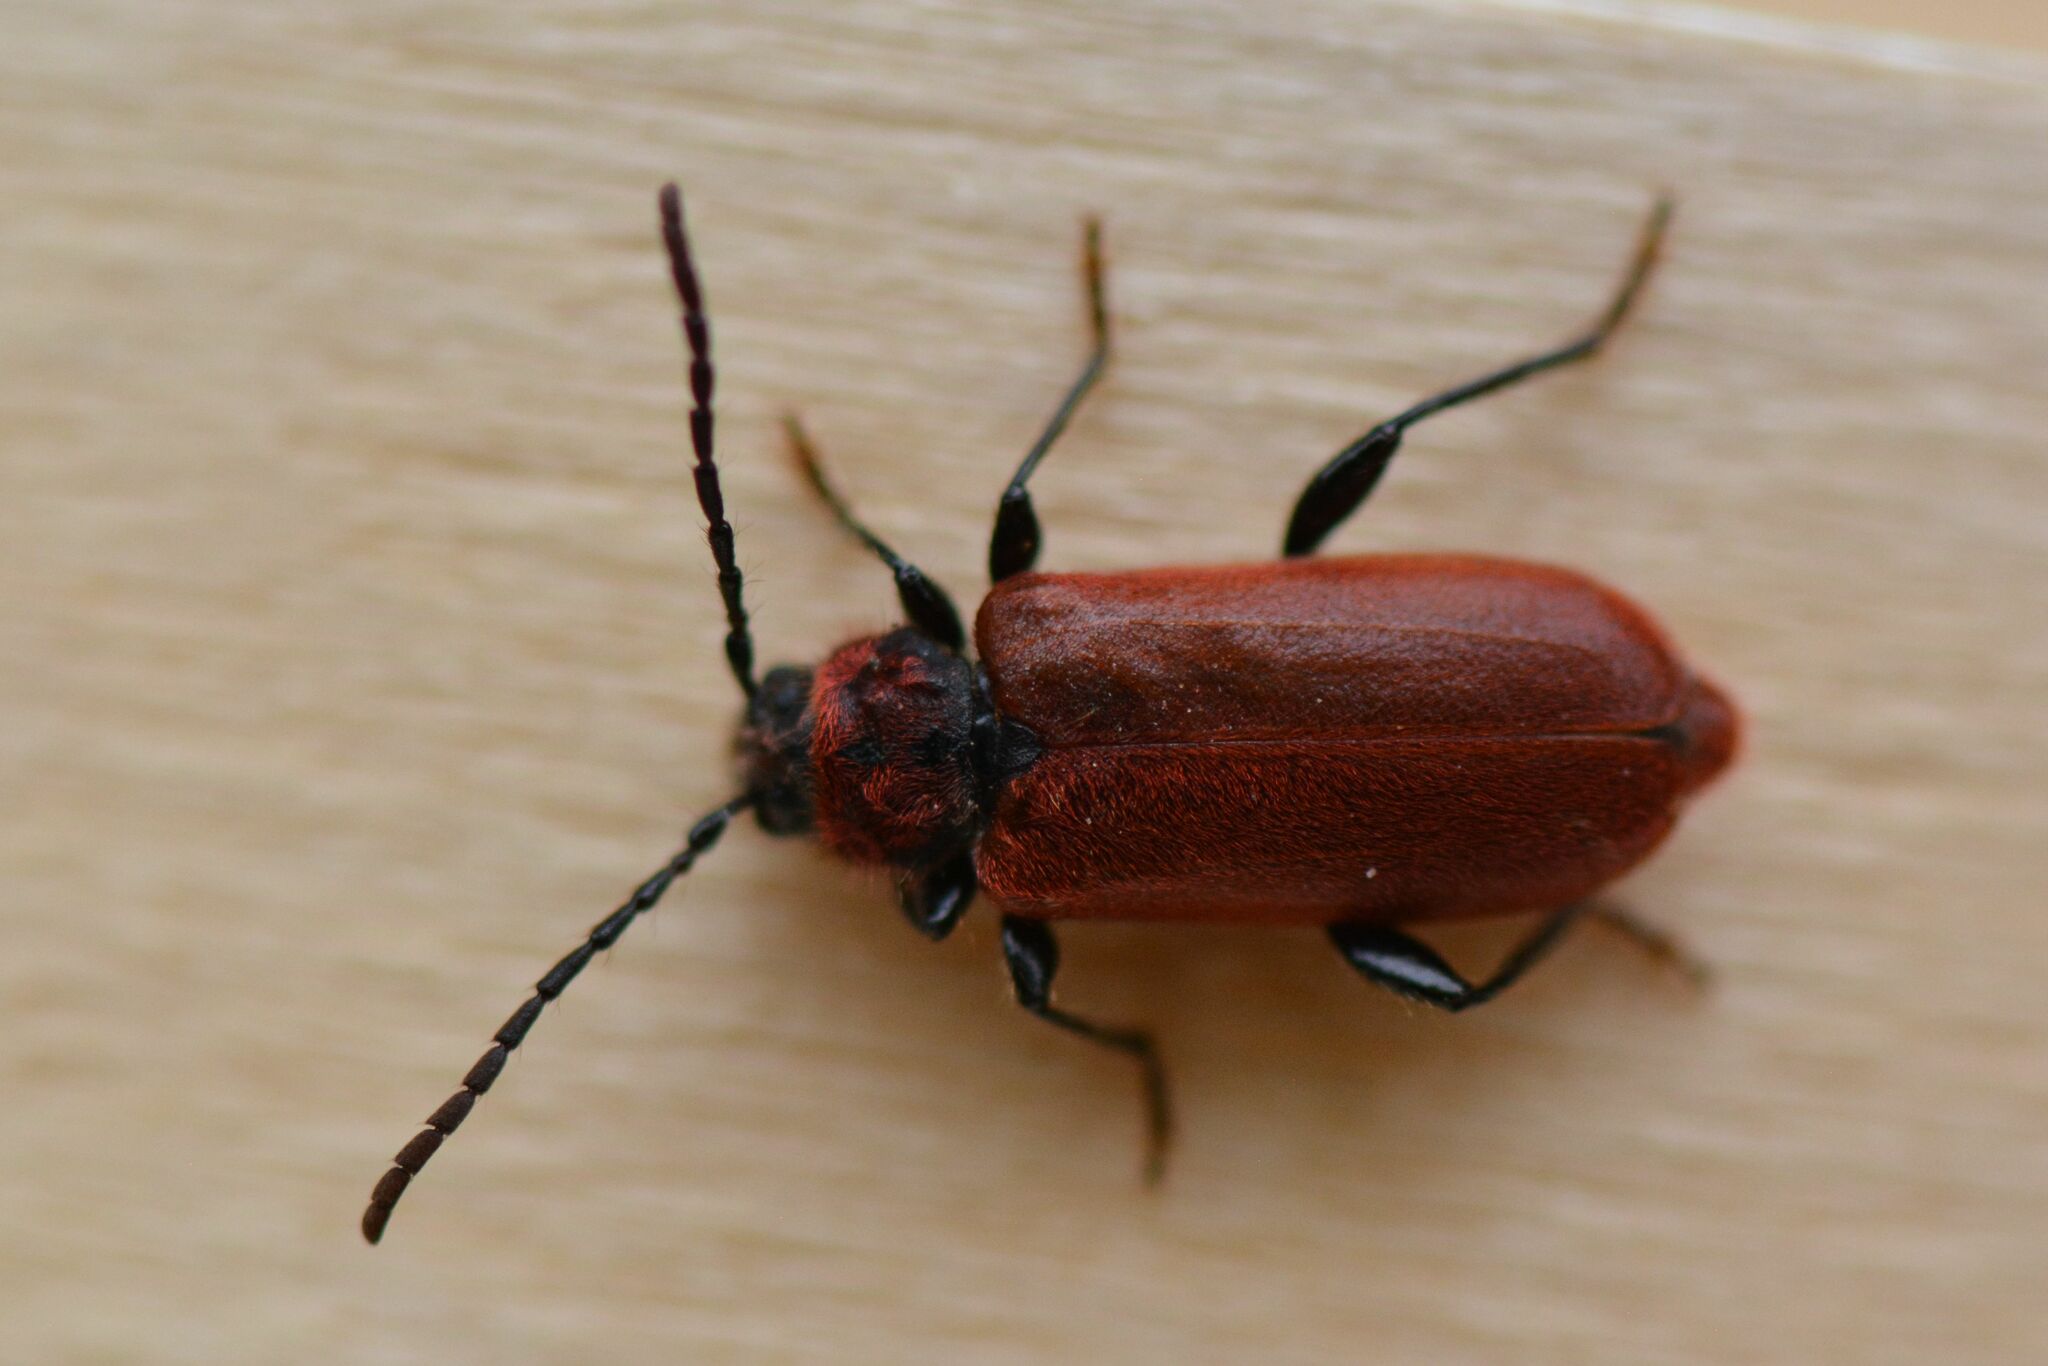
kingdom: Animalia
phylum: Arthropoda
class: Insecta
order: Coleoptera
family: Cerambycidae
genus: Pyrrhidium
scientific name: Pyrrhidium sanguineum
